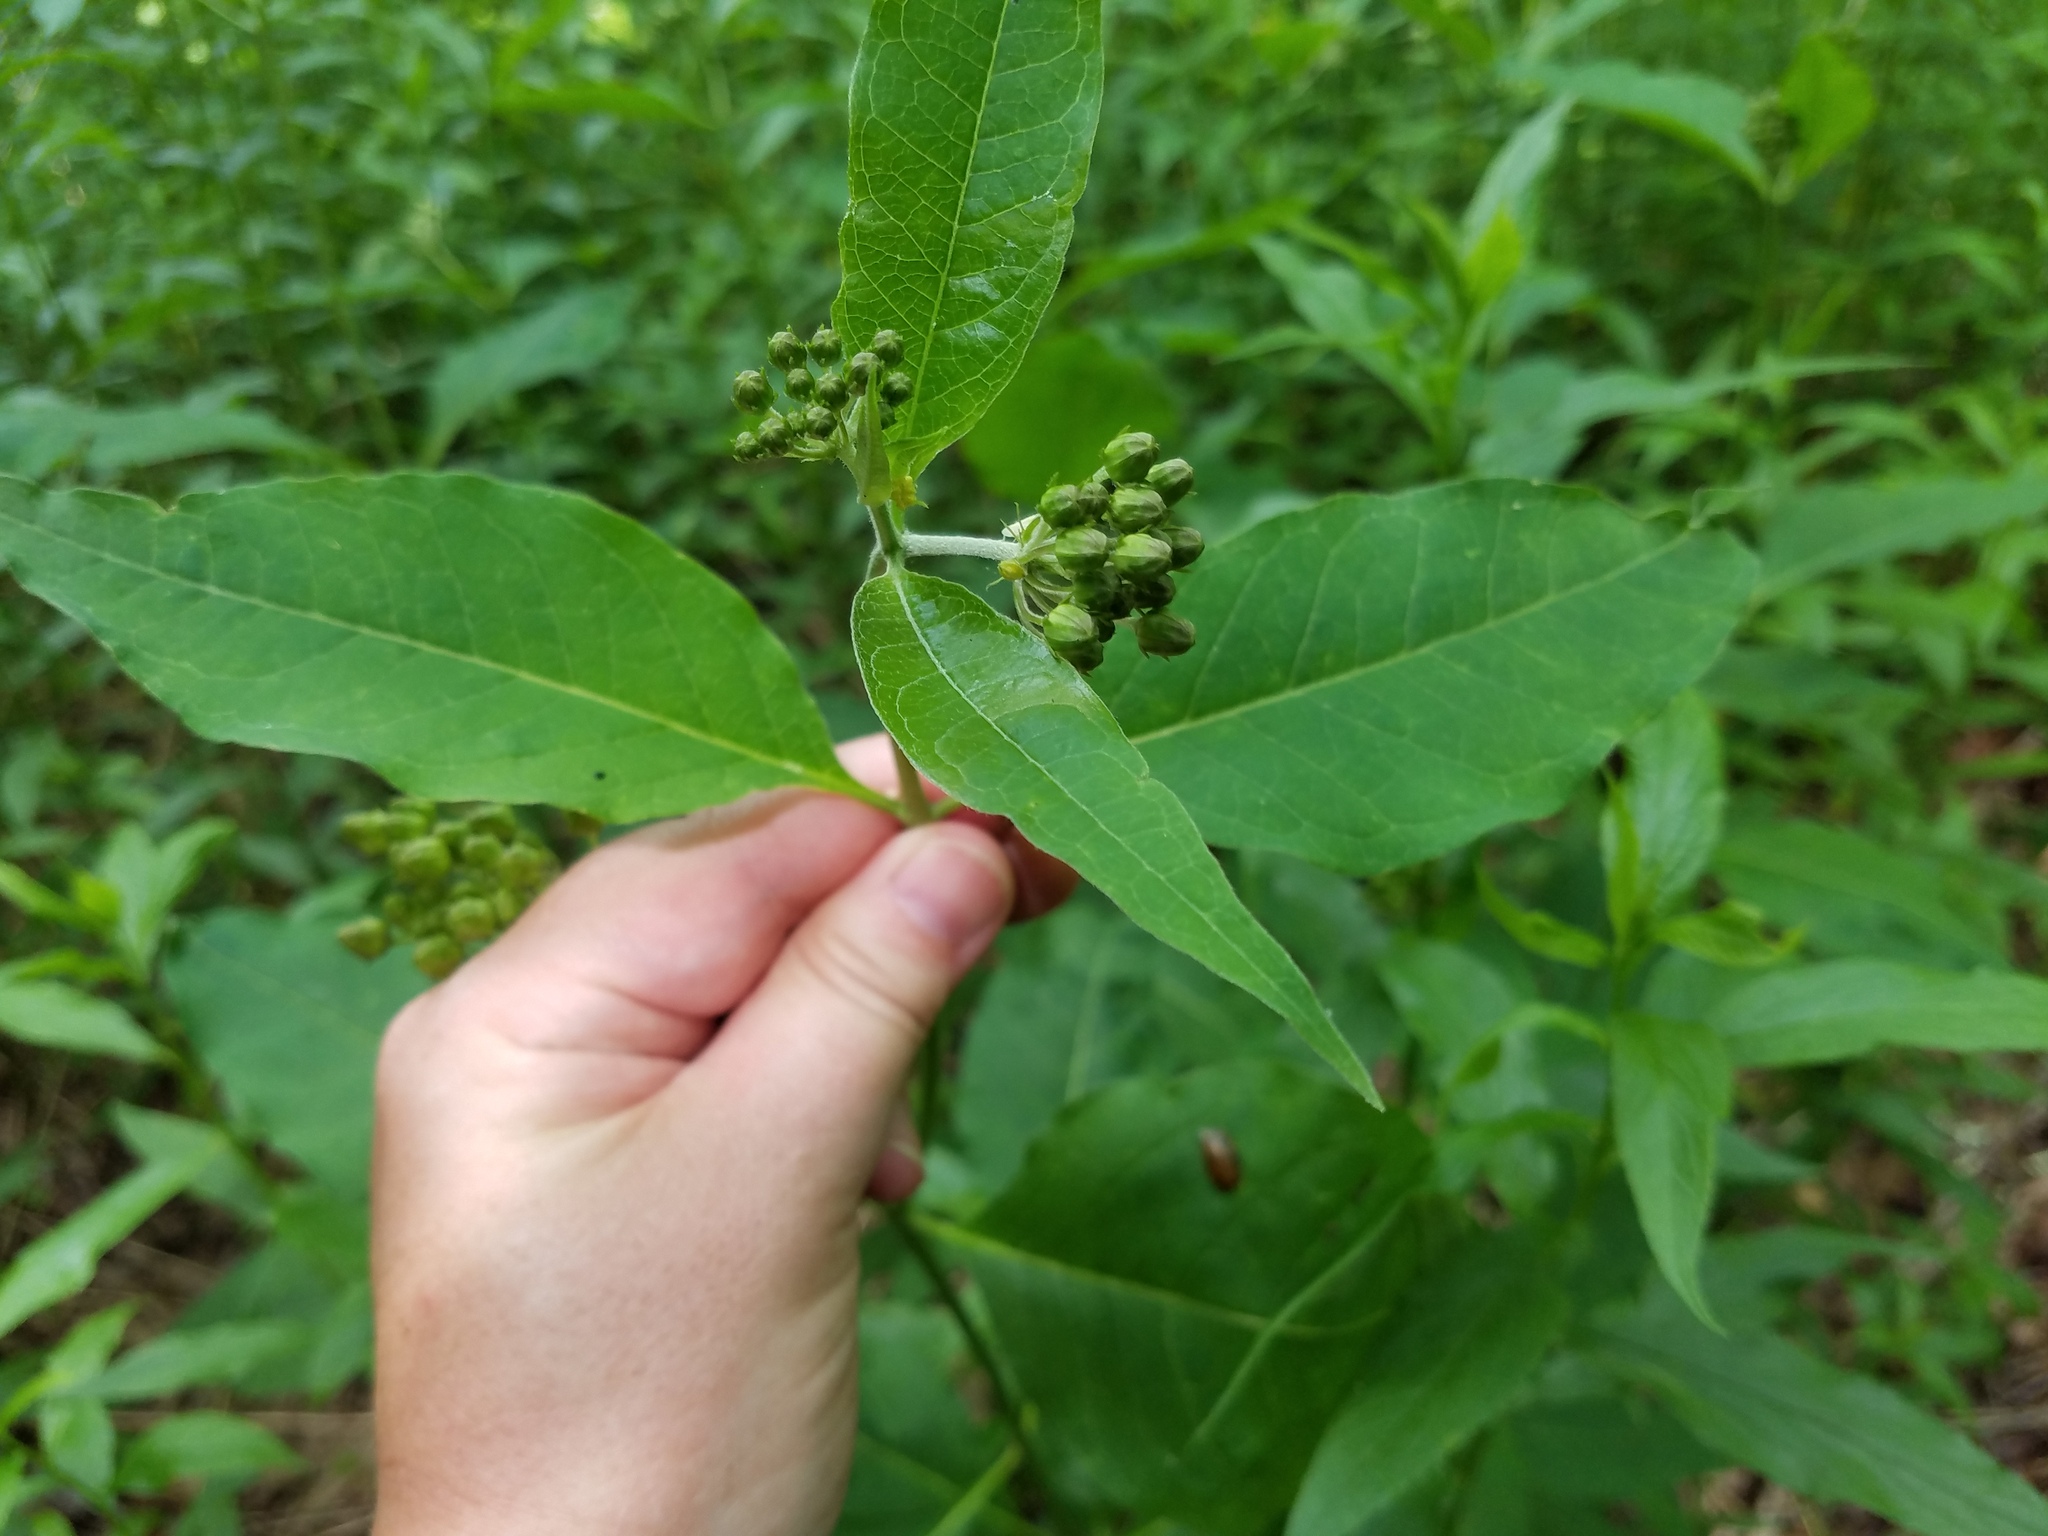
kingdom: Plantae
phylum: Tracheophyta
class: Magnoliopsida
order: Gentianales
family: Apocynaceae
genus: Asclepias
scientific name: Asclepias exaltata
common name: Poke milkweed
